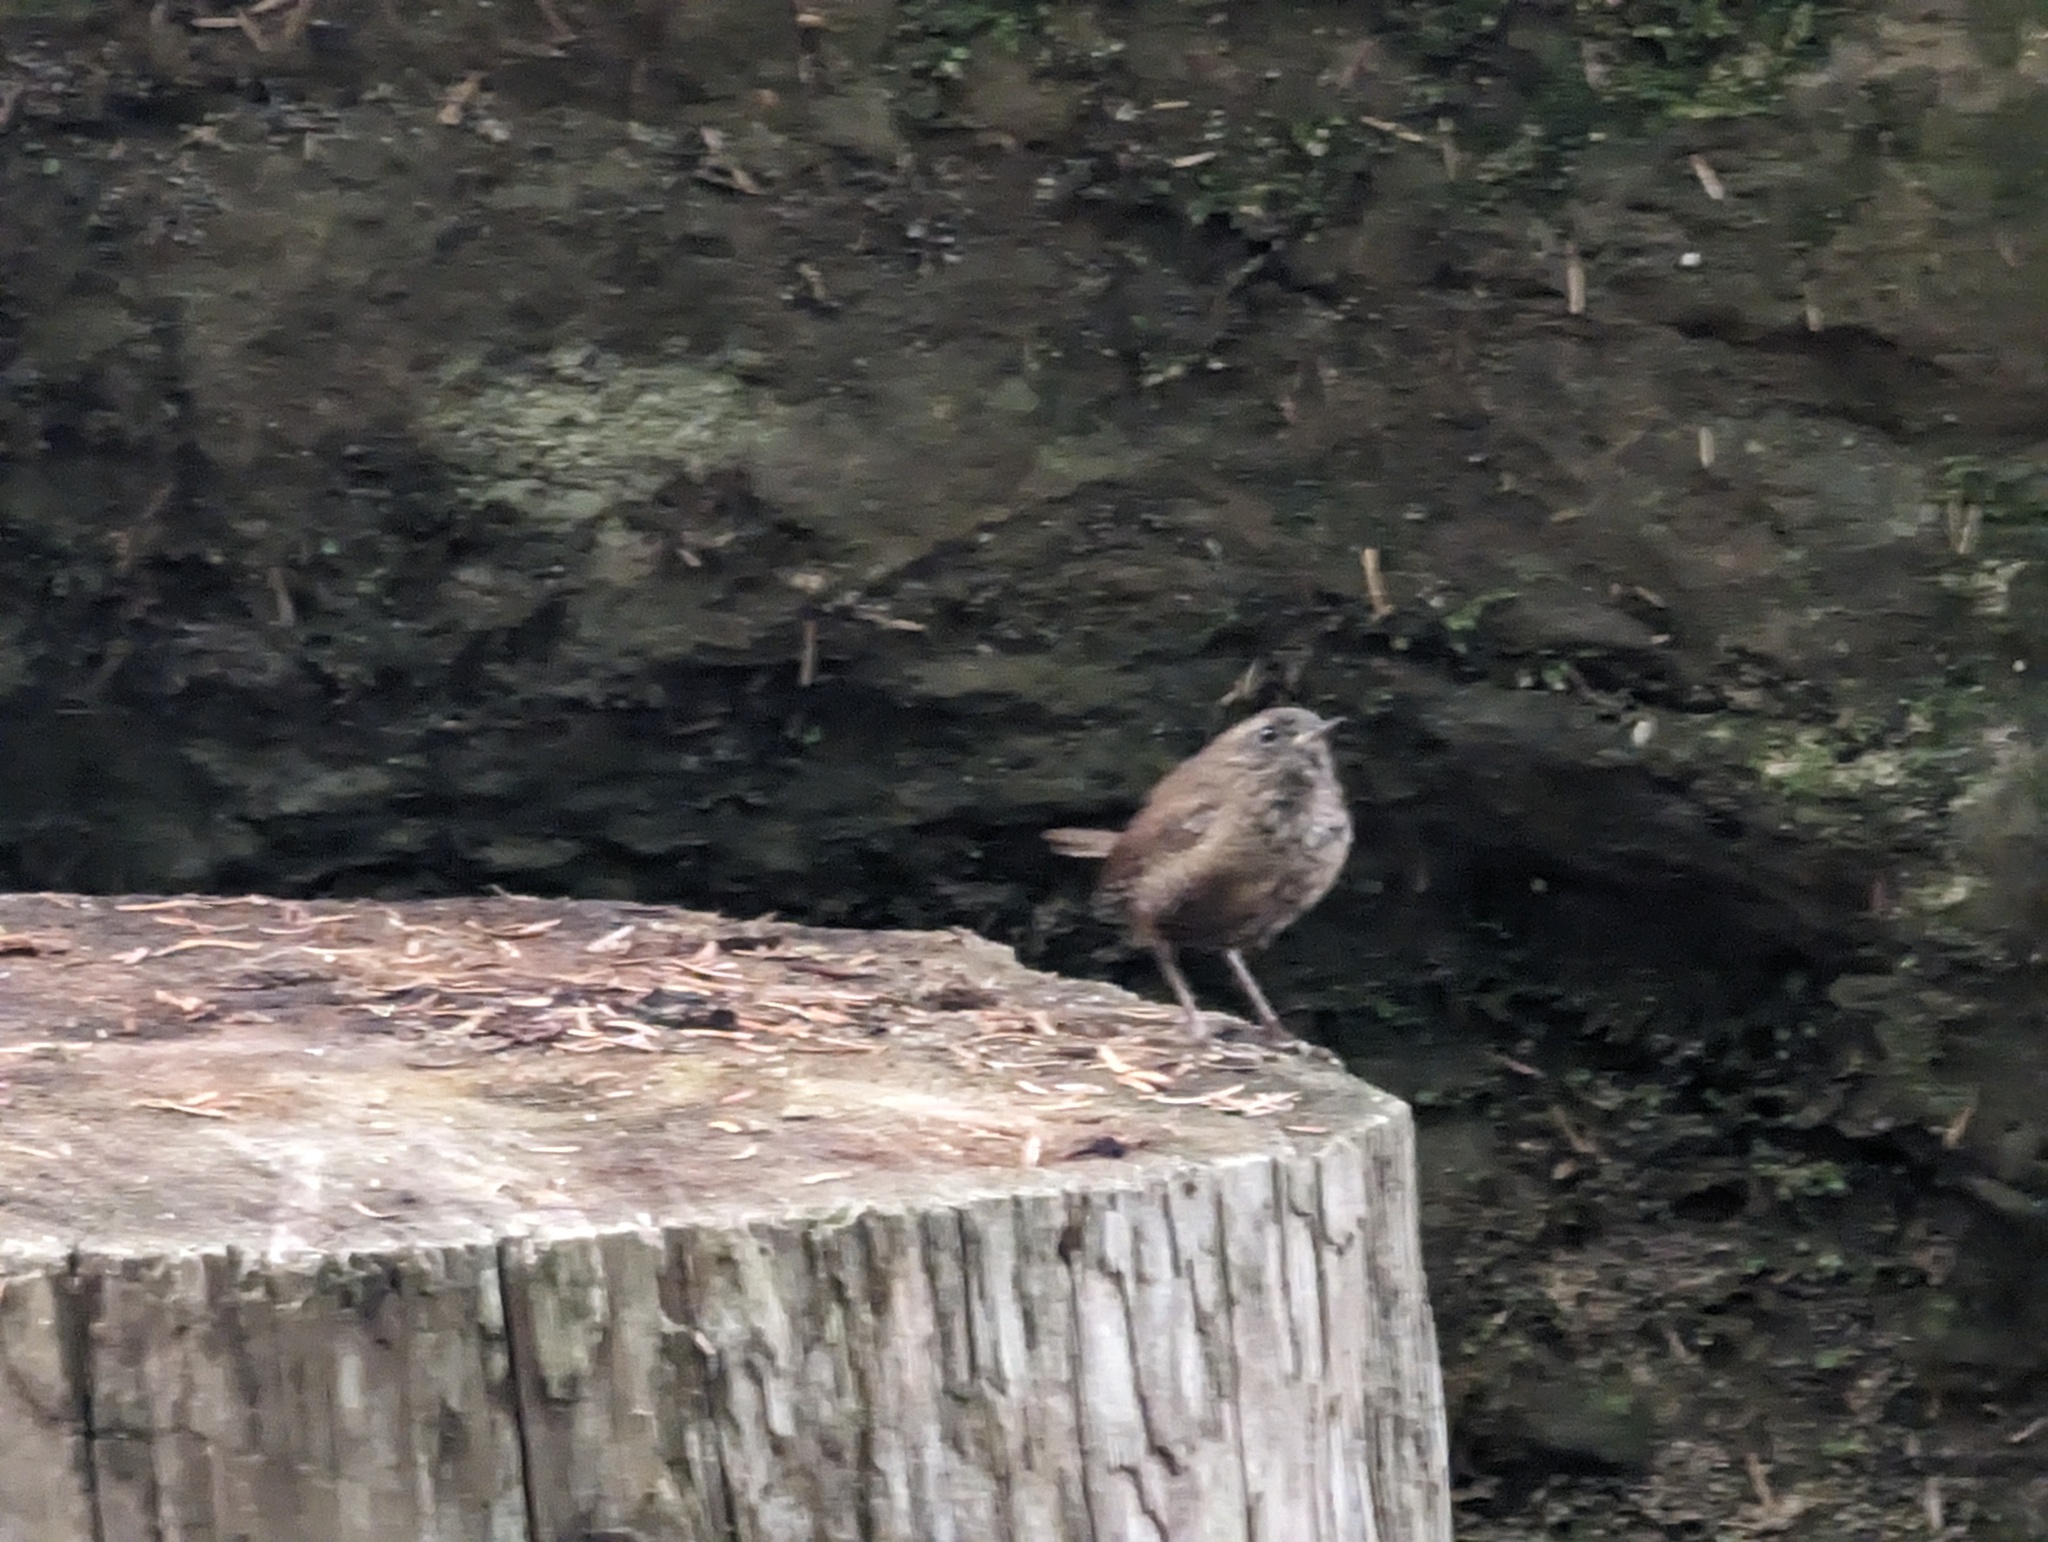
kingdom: Animalia
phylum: Chordata
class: Aves
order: Passeriformes
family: Troglodytidae
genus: Troglodytes
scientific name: Troglodytes pacificus
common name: Pacific wren
